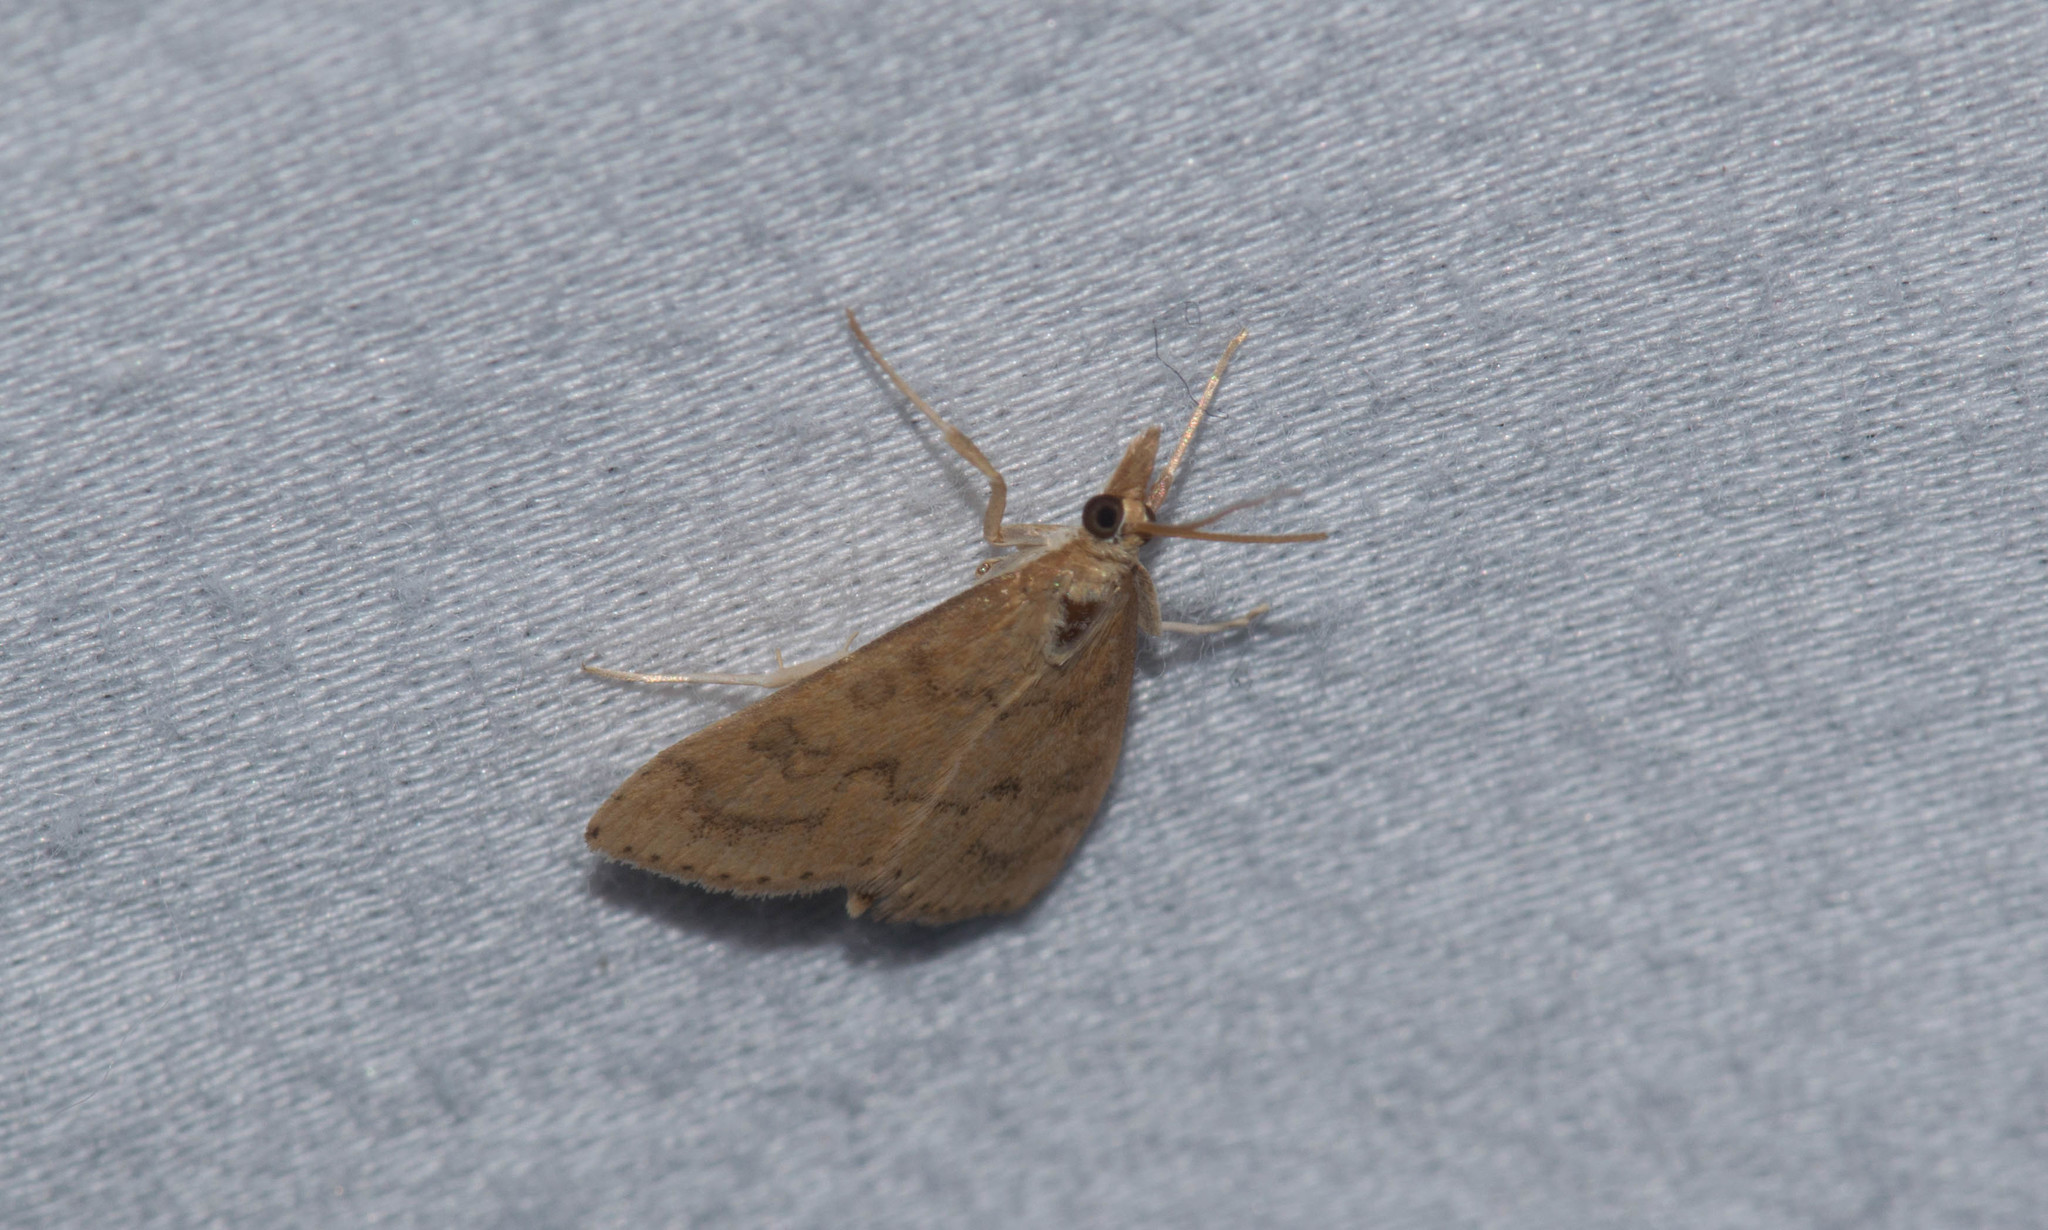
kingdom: Animalia
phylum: Arthropoda
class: Insecta
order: Lepidoptera
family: Crambidae
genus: Udea
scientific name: Udea rubigalis
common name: Celery leaftier moth
